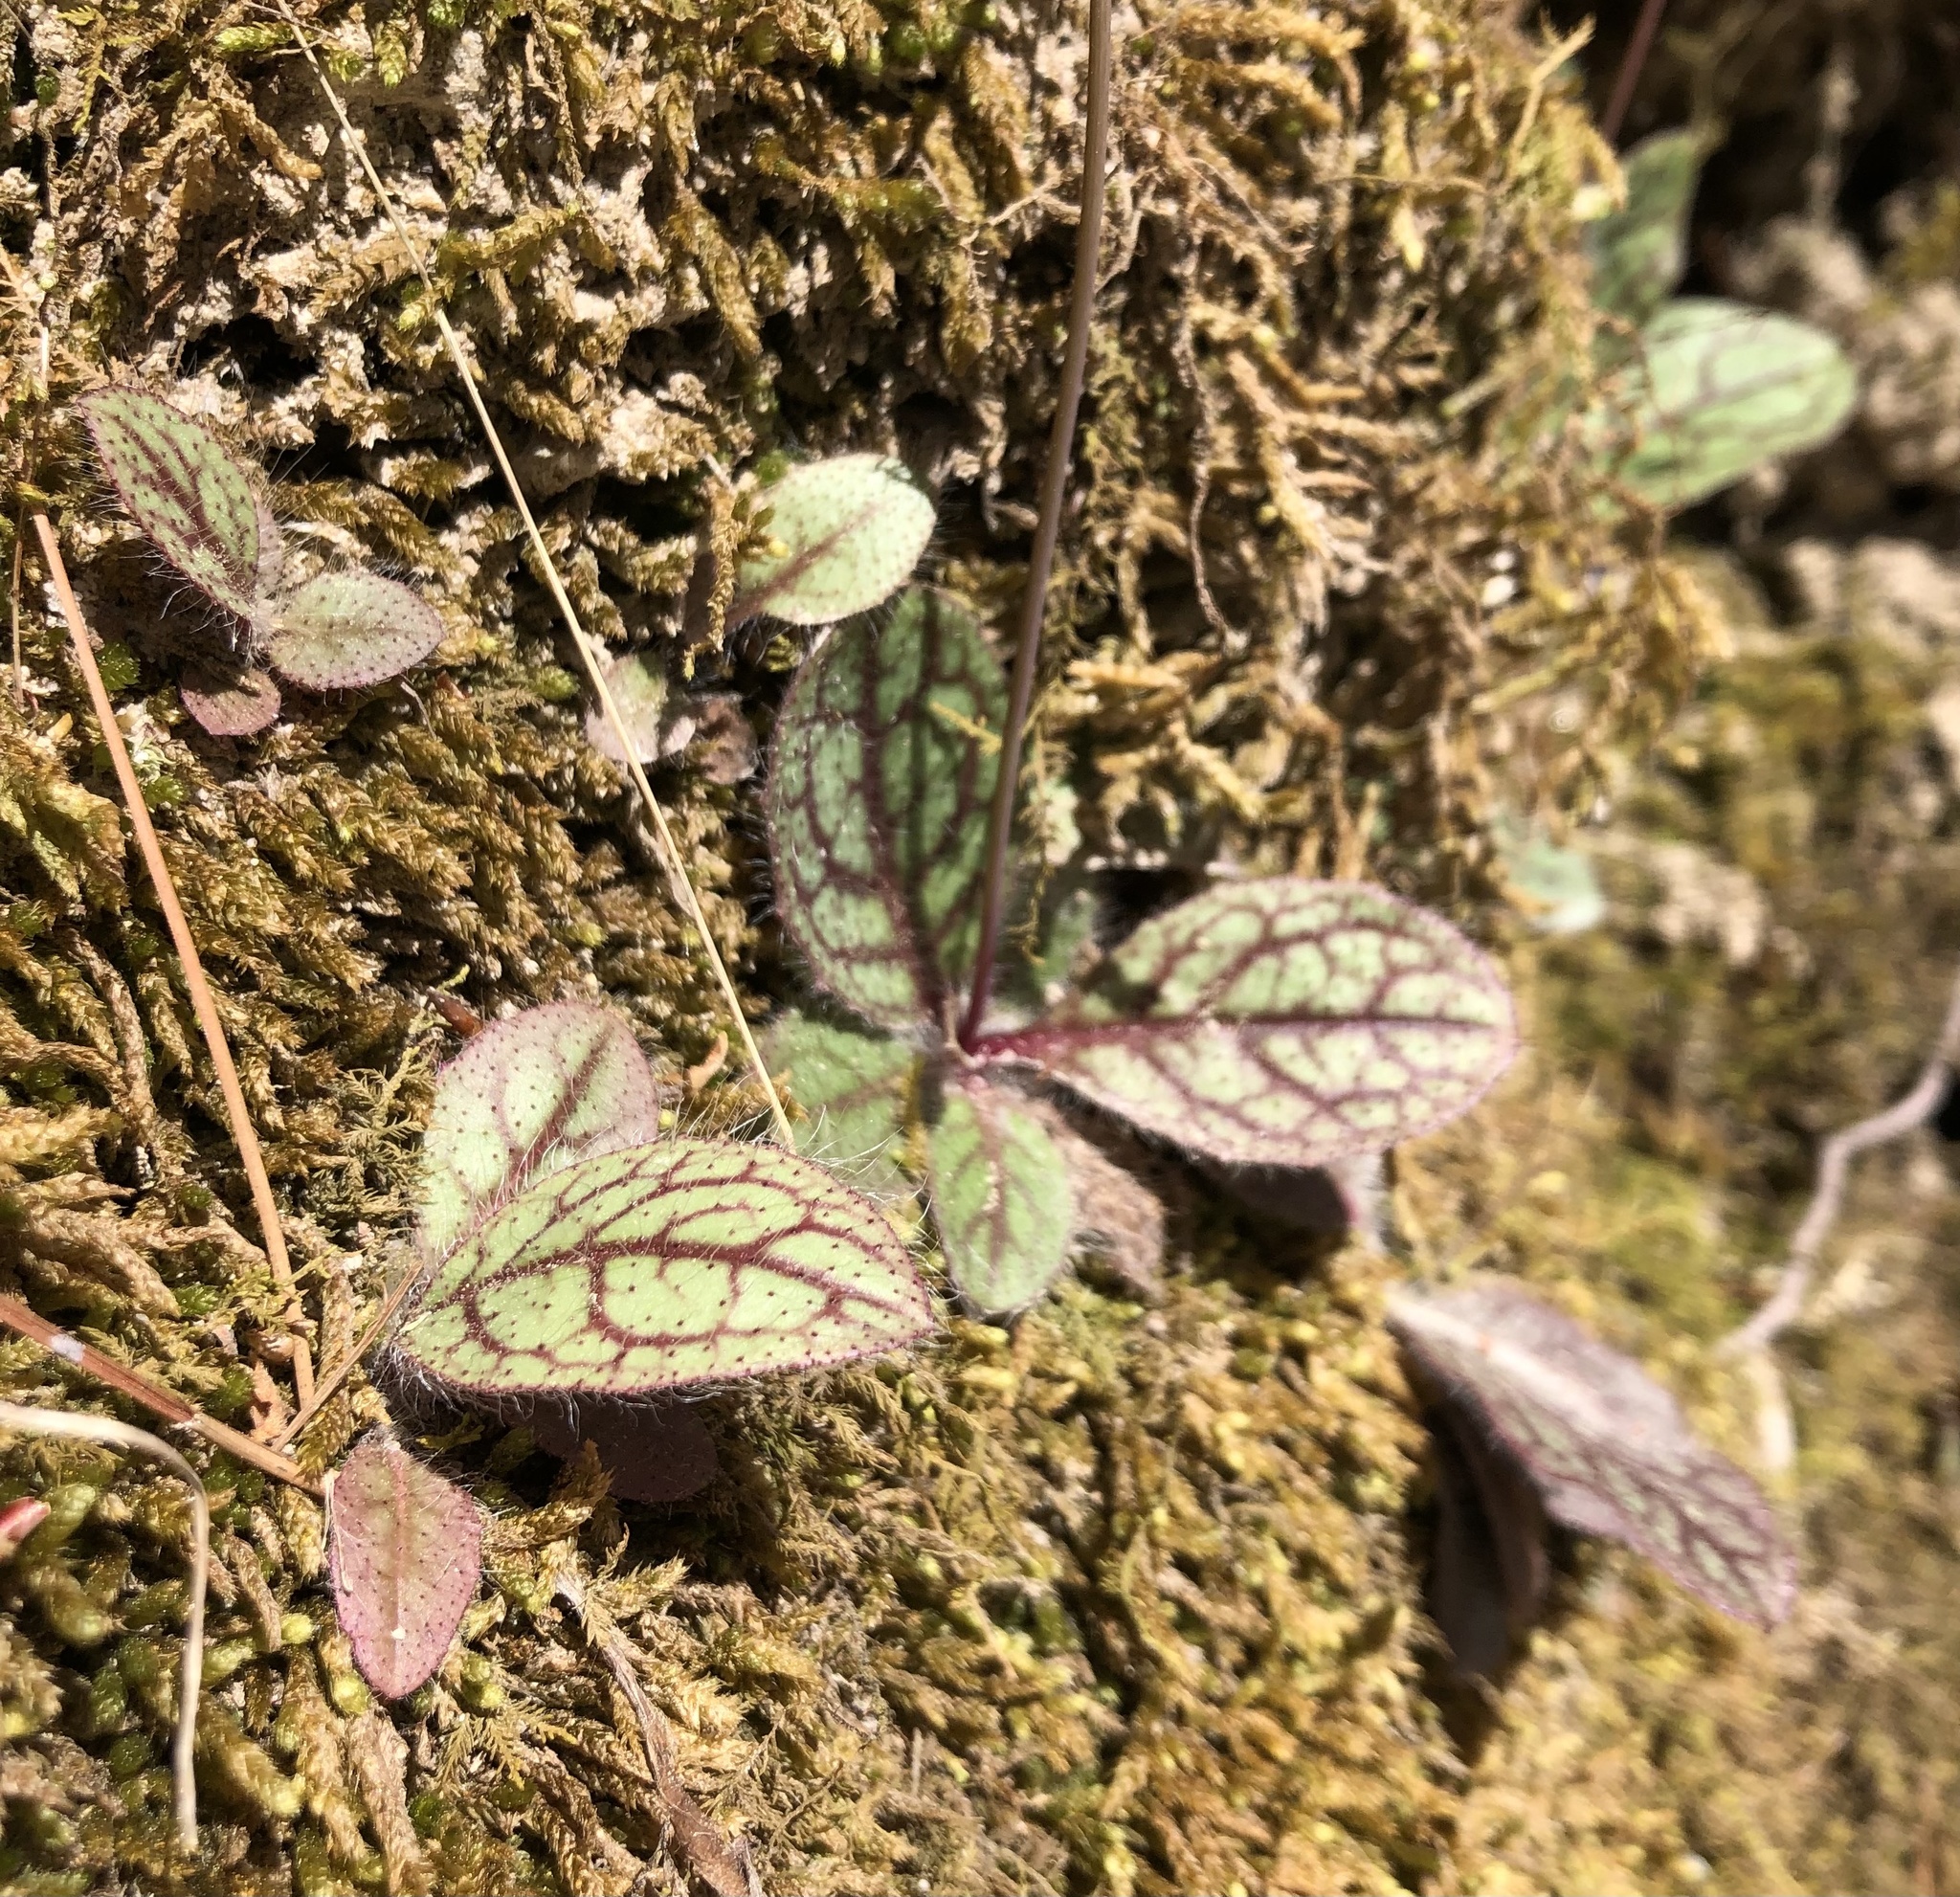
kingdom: Plantae
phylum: Tracheophyta
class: Magnoliopsida
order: Asterales
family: Asteraceae
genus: Hieracium
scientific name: Hieracium venosum
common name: Rattlesnake hawkweed
